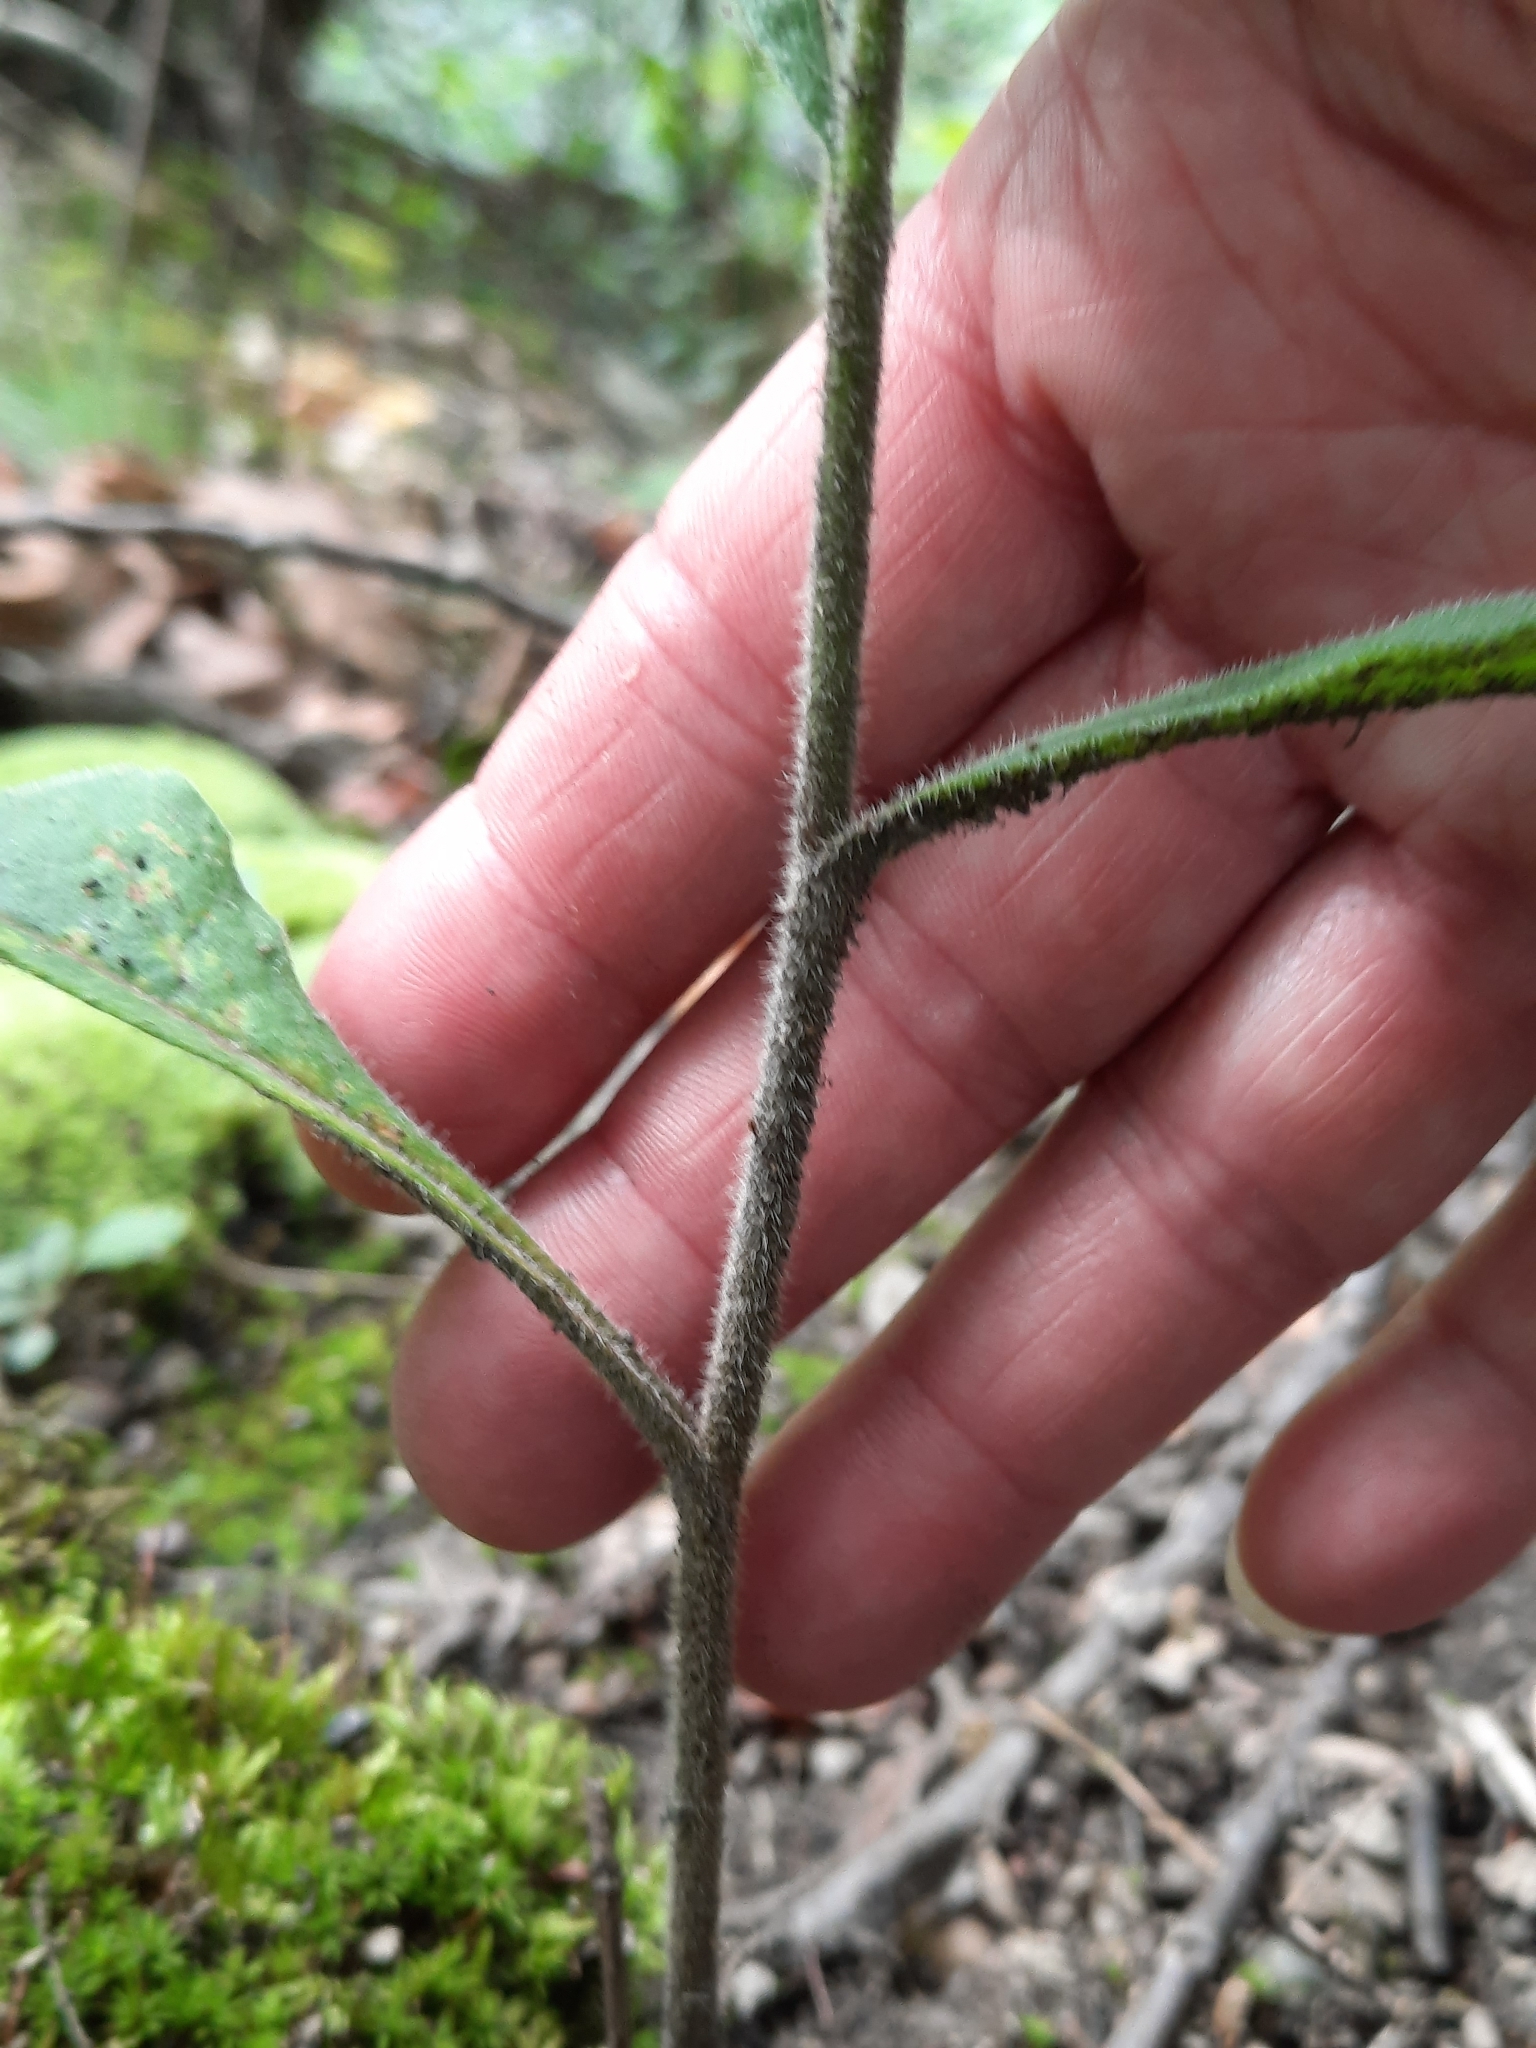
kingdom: Plantae
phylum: Tracheophyta
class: Magnoliopsida
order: Asterales
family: Asteraceae
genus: Solidago
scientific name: Solidago bicolor
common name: Silverrod
